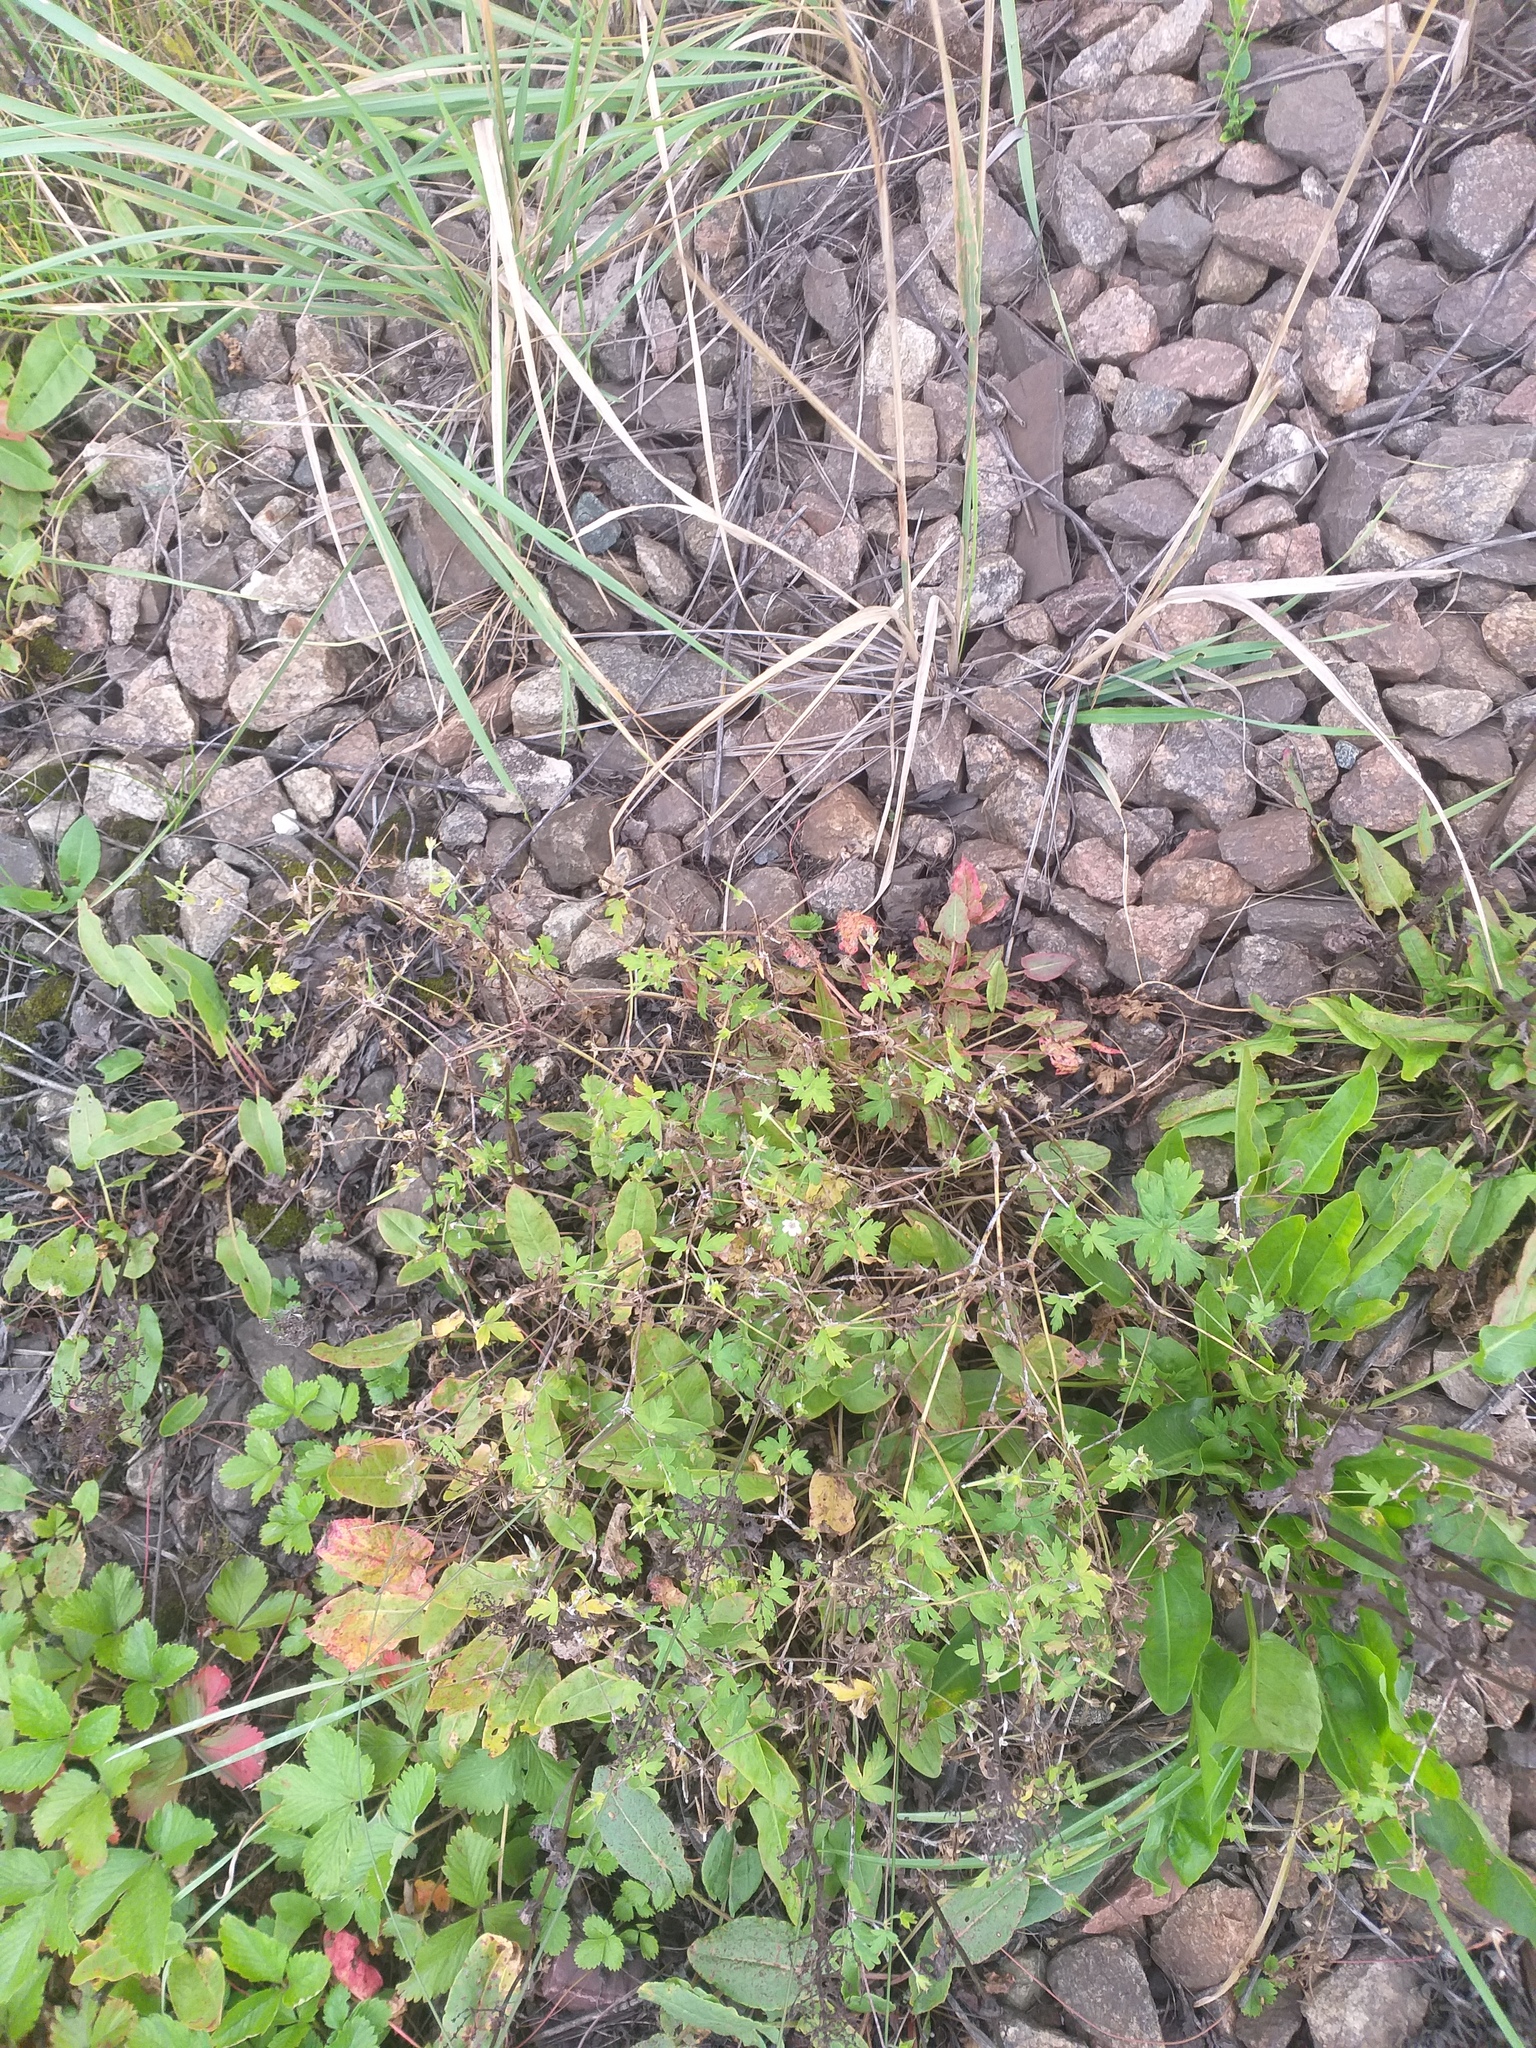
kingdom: Plantae
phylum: Tracheophyta
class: Magnoliopsida
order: Geraniales
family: Geraniaceae
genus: Geranium
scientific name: Geranium sibiricum
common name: Siberian crane's-bill
